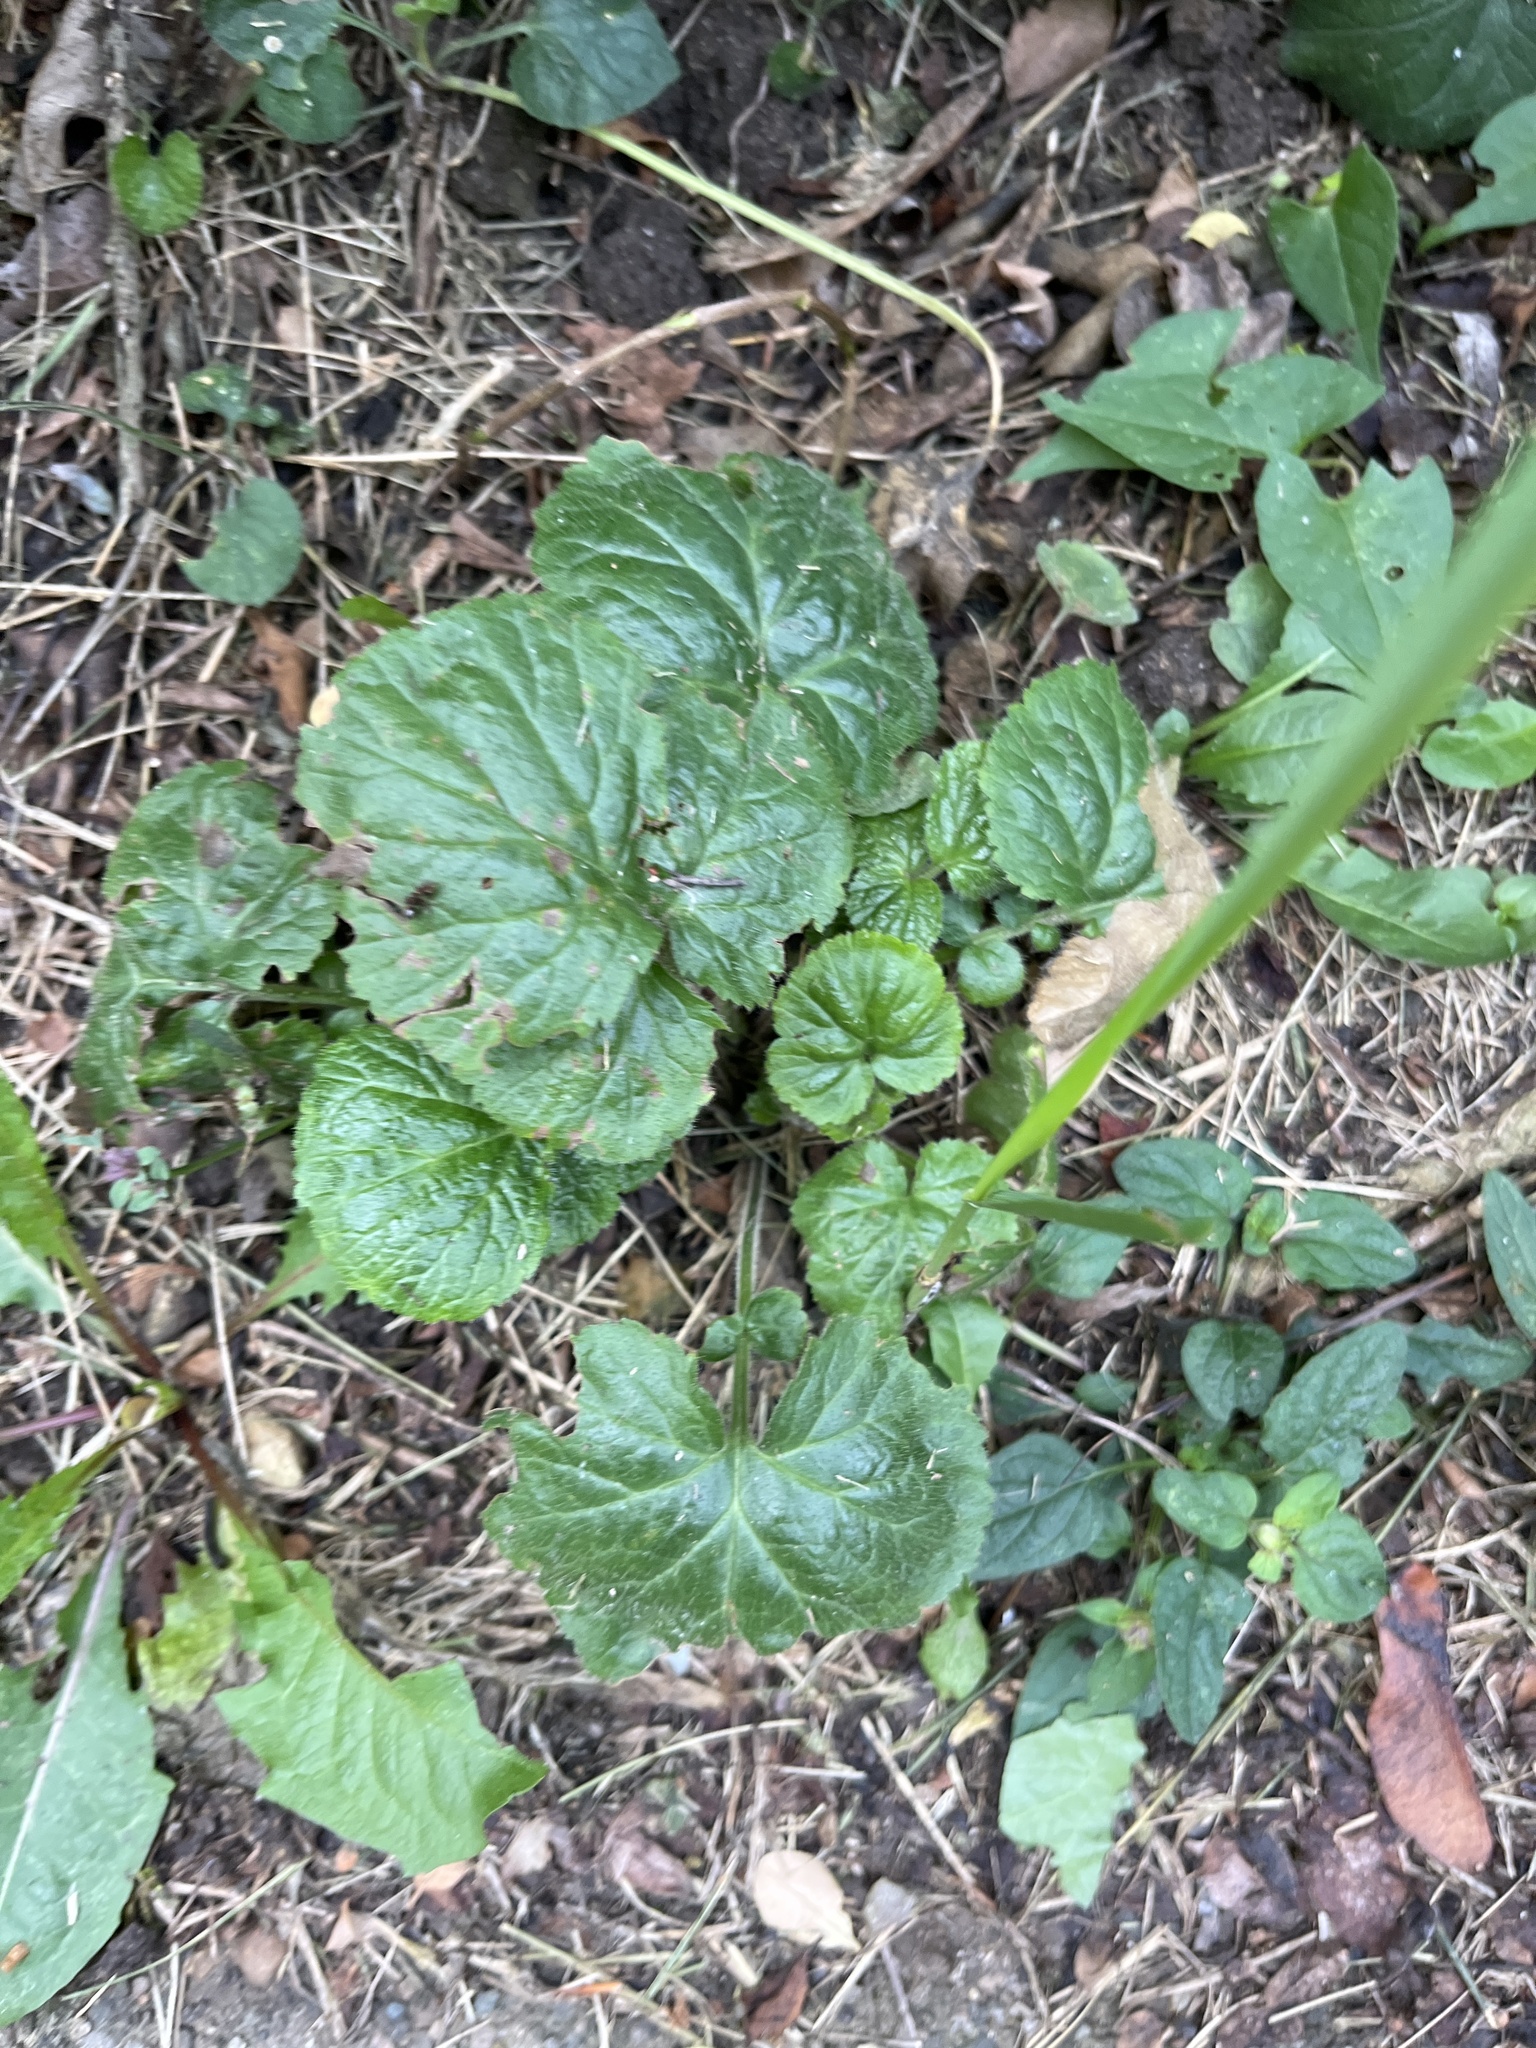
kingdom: Plantae
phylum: Tracheophyta
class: Magnoliopsida
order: Rosales
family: Rosaceae
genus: Geum
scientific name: Geum
